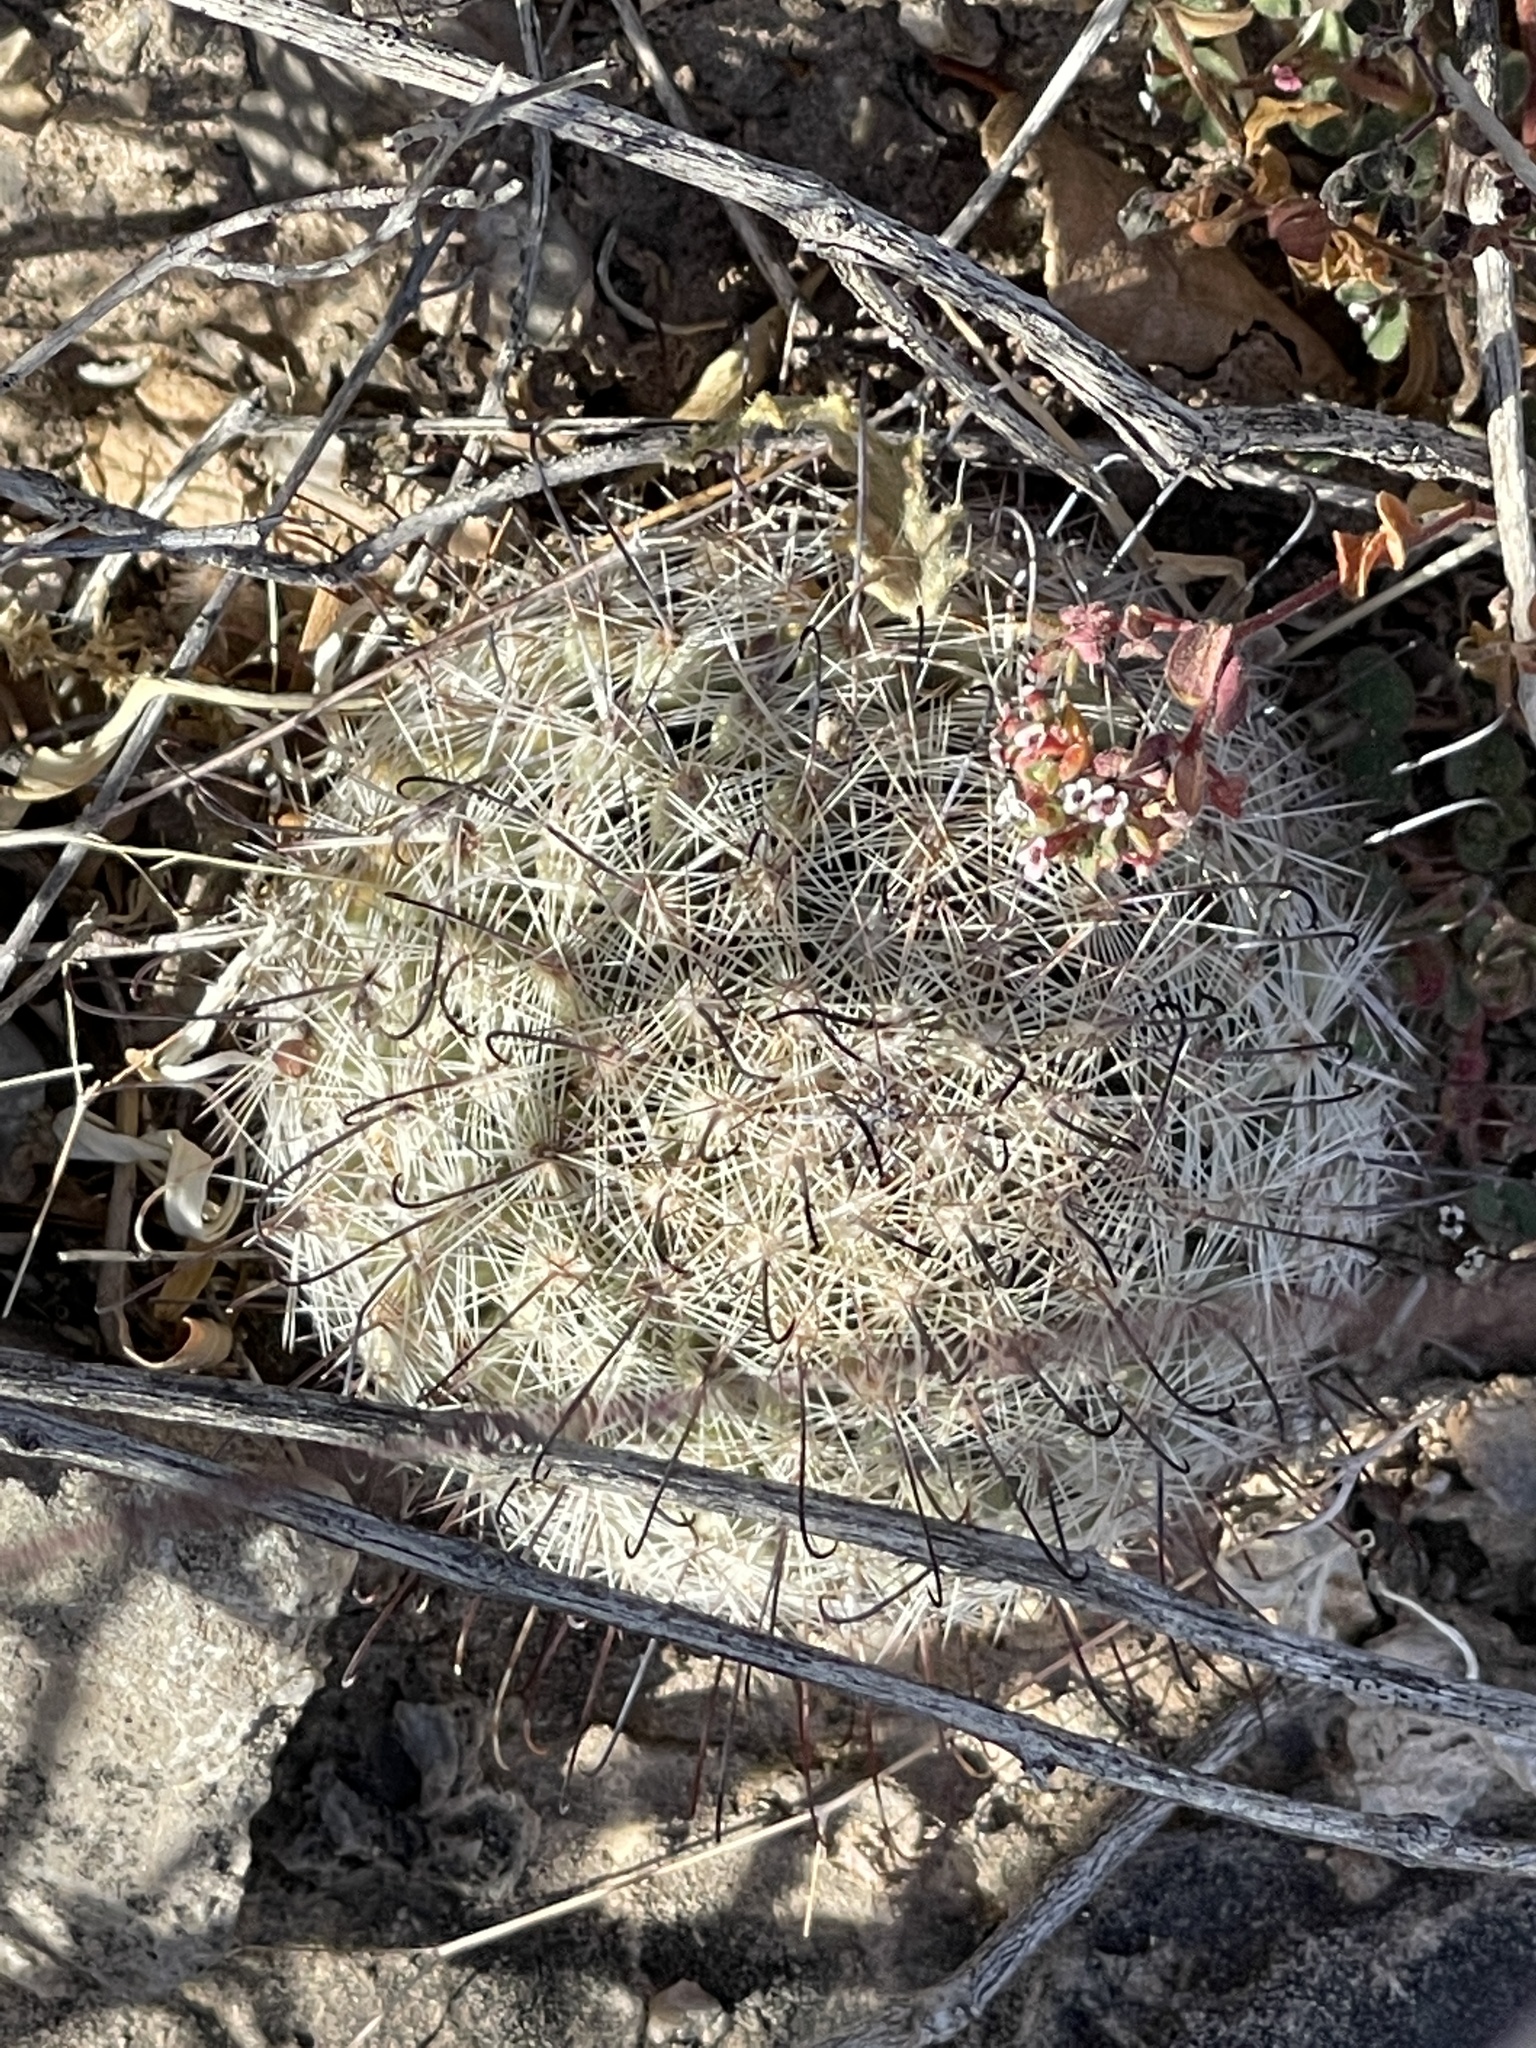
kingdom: Plantae
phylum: Tracheophyta
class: Magnoliopsida
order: Caryophyllales
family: Cactaceae
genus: Cochemiea
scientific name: Cochemiea grahamii
